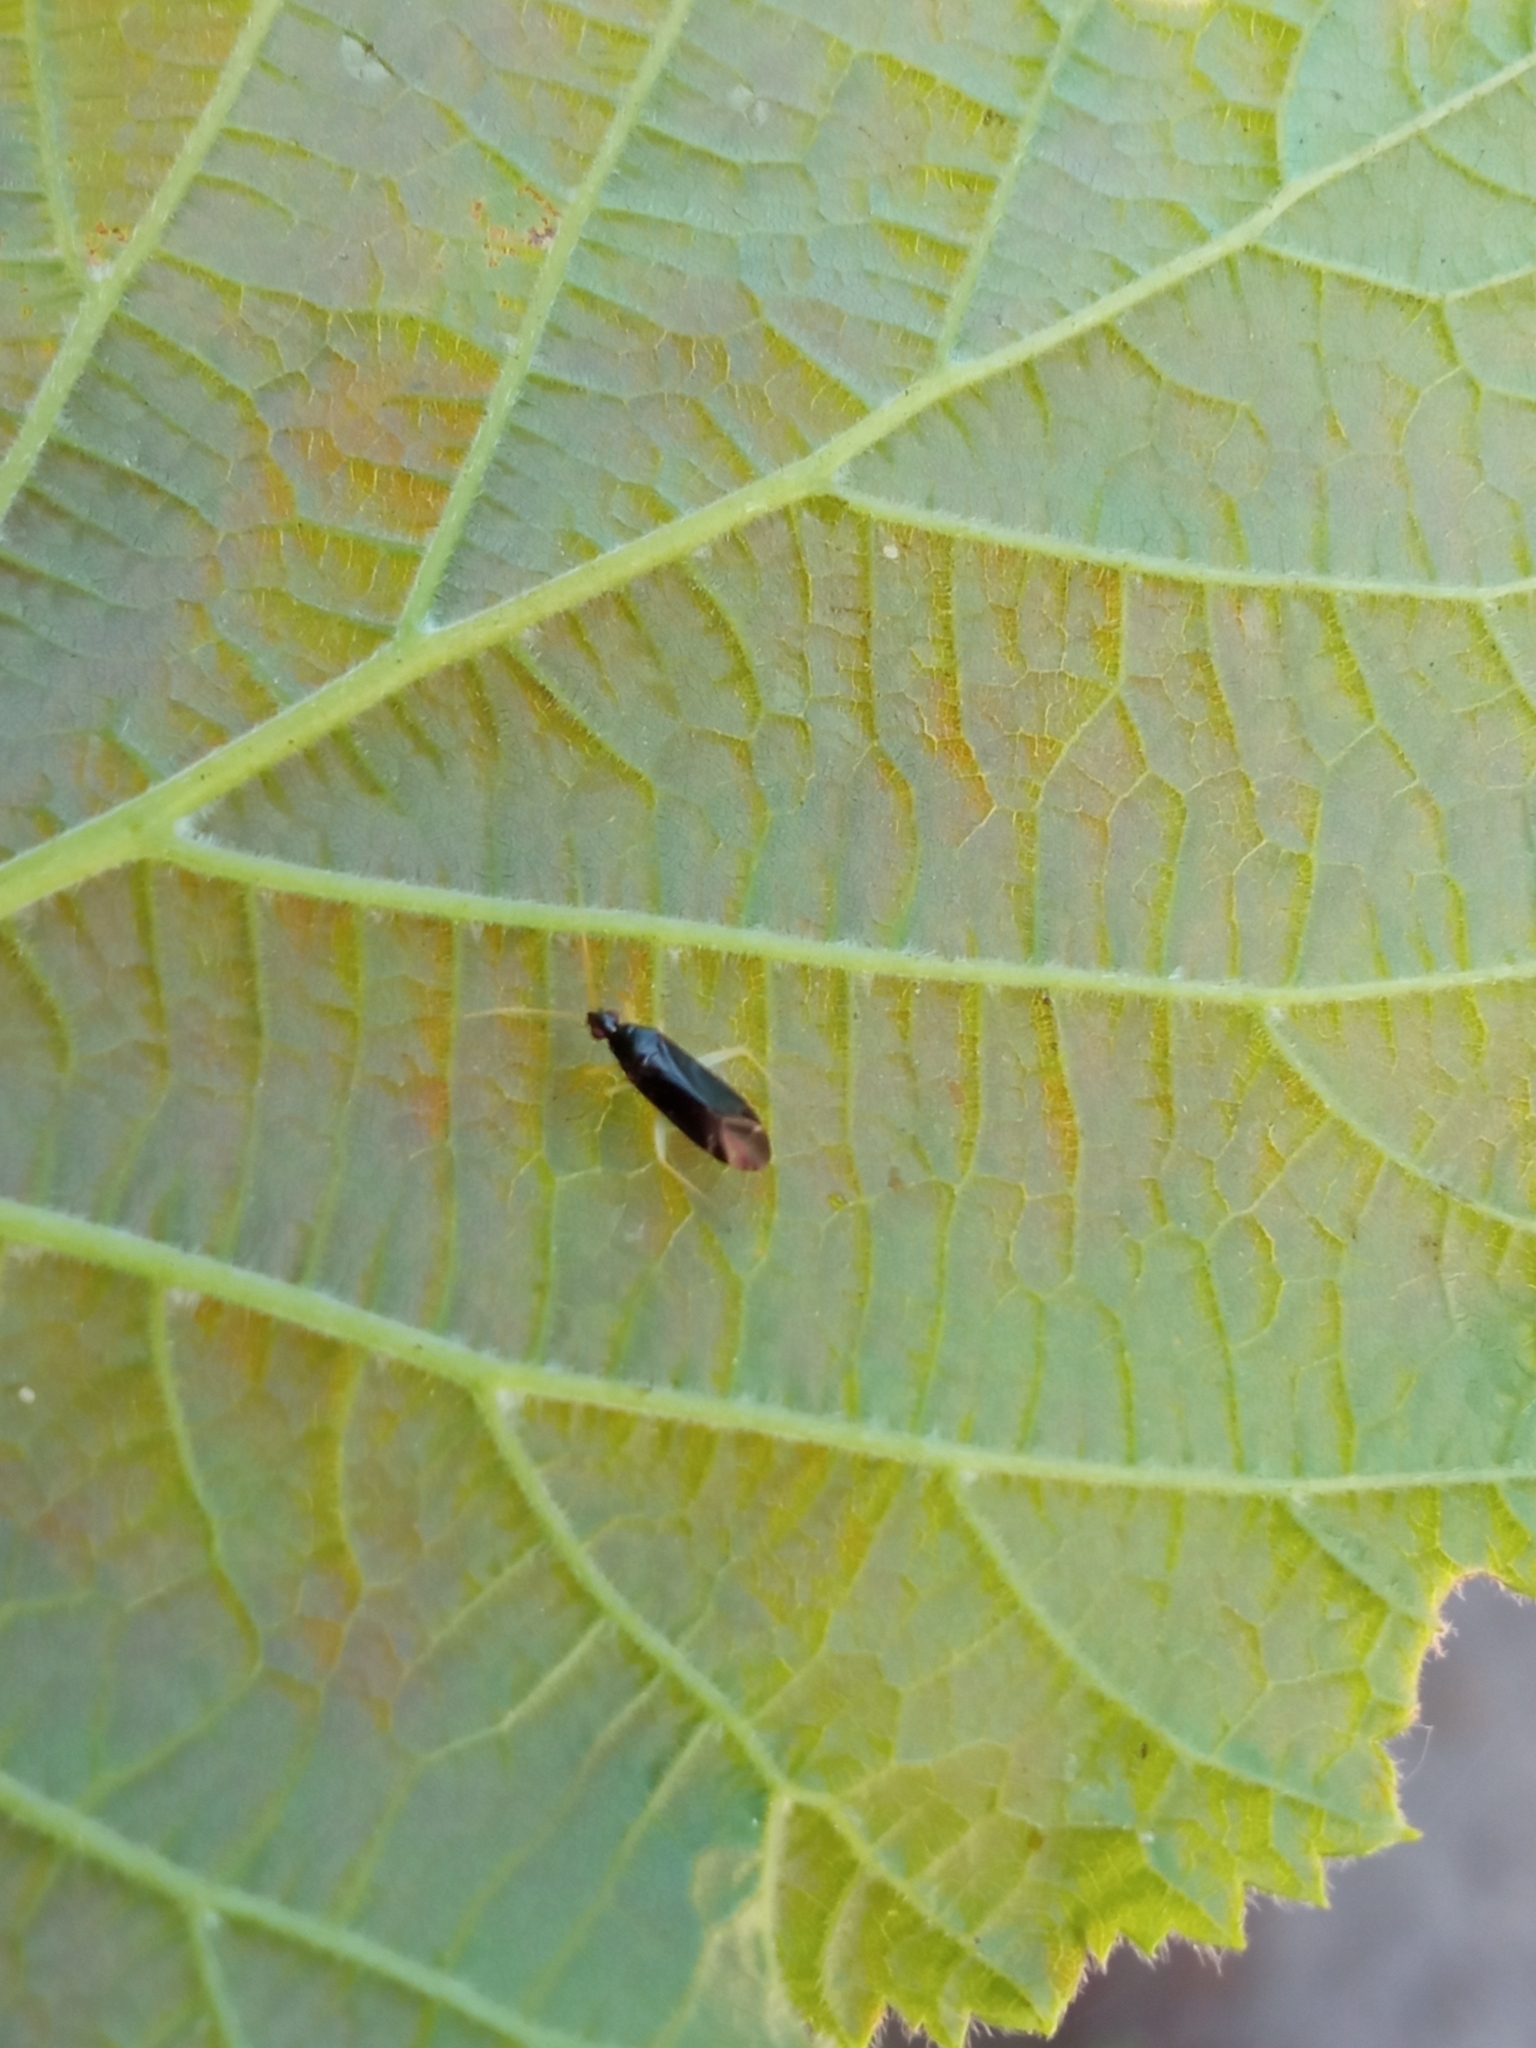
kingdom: Animalia
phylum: Arthropoda
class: Insecta
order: Hemiptera
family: Miridae
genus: Phylus
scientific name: Phylus coryli
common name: Plant bug
